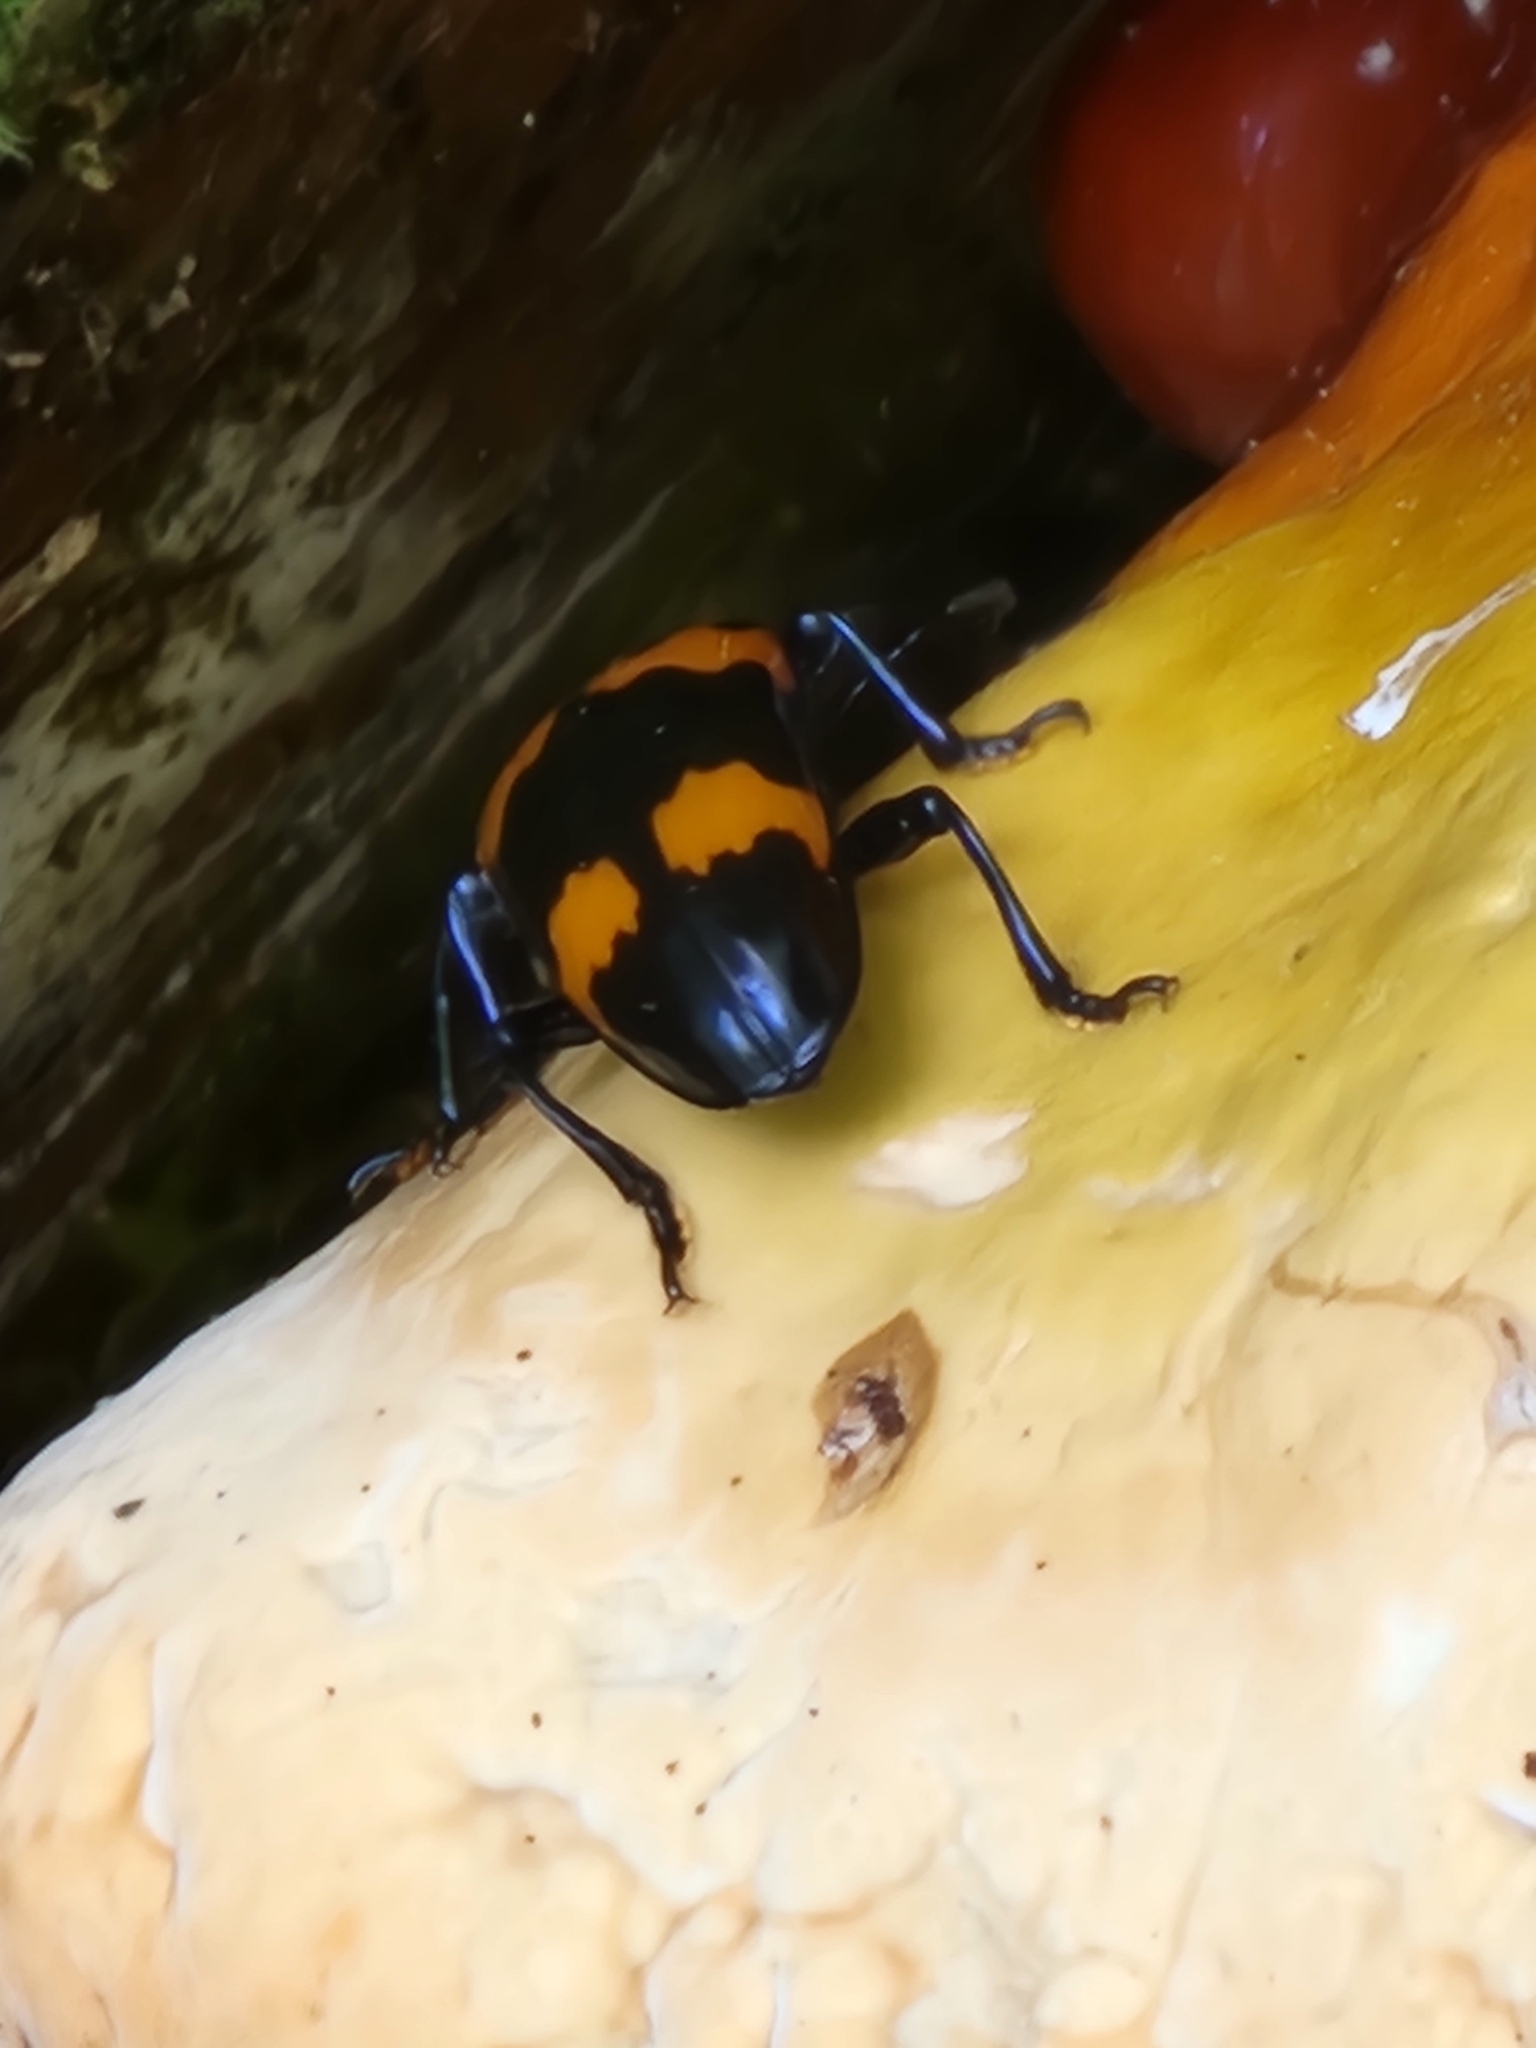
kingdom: Animalia
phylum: Arthropoda
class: Insecta
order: Coleoptera
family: Erotylidae
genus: Megalodacne
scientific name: Megalodacne heros
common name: Pleasing fungus beetle
